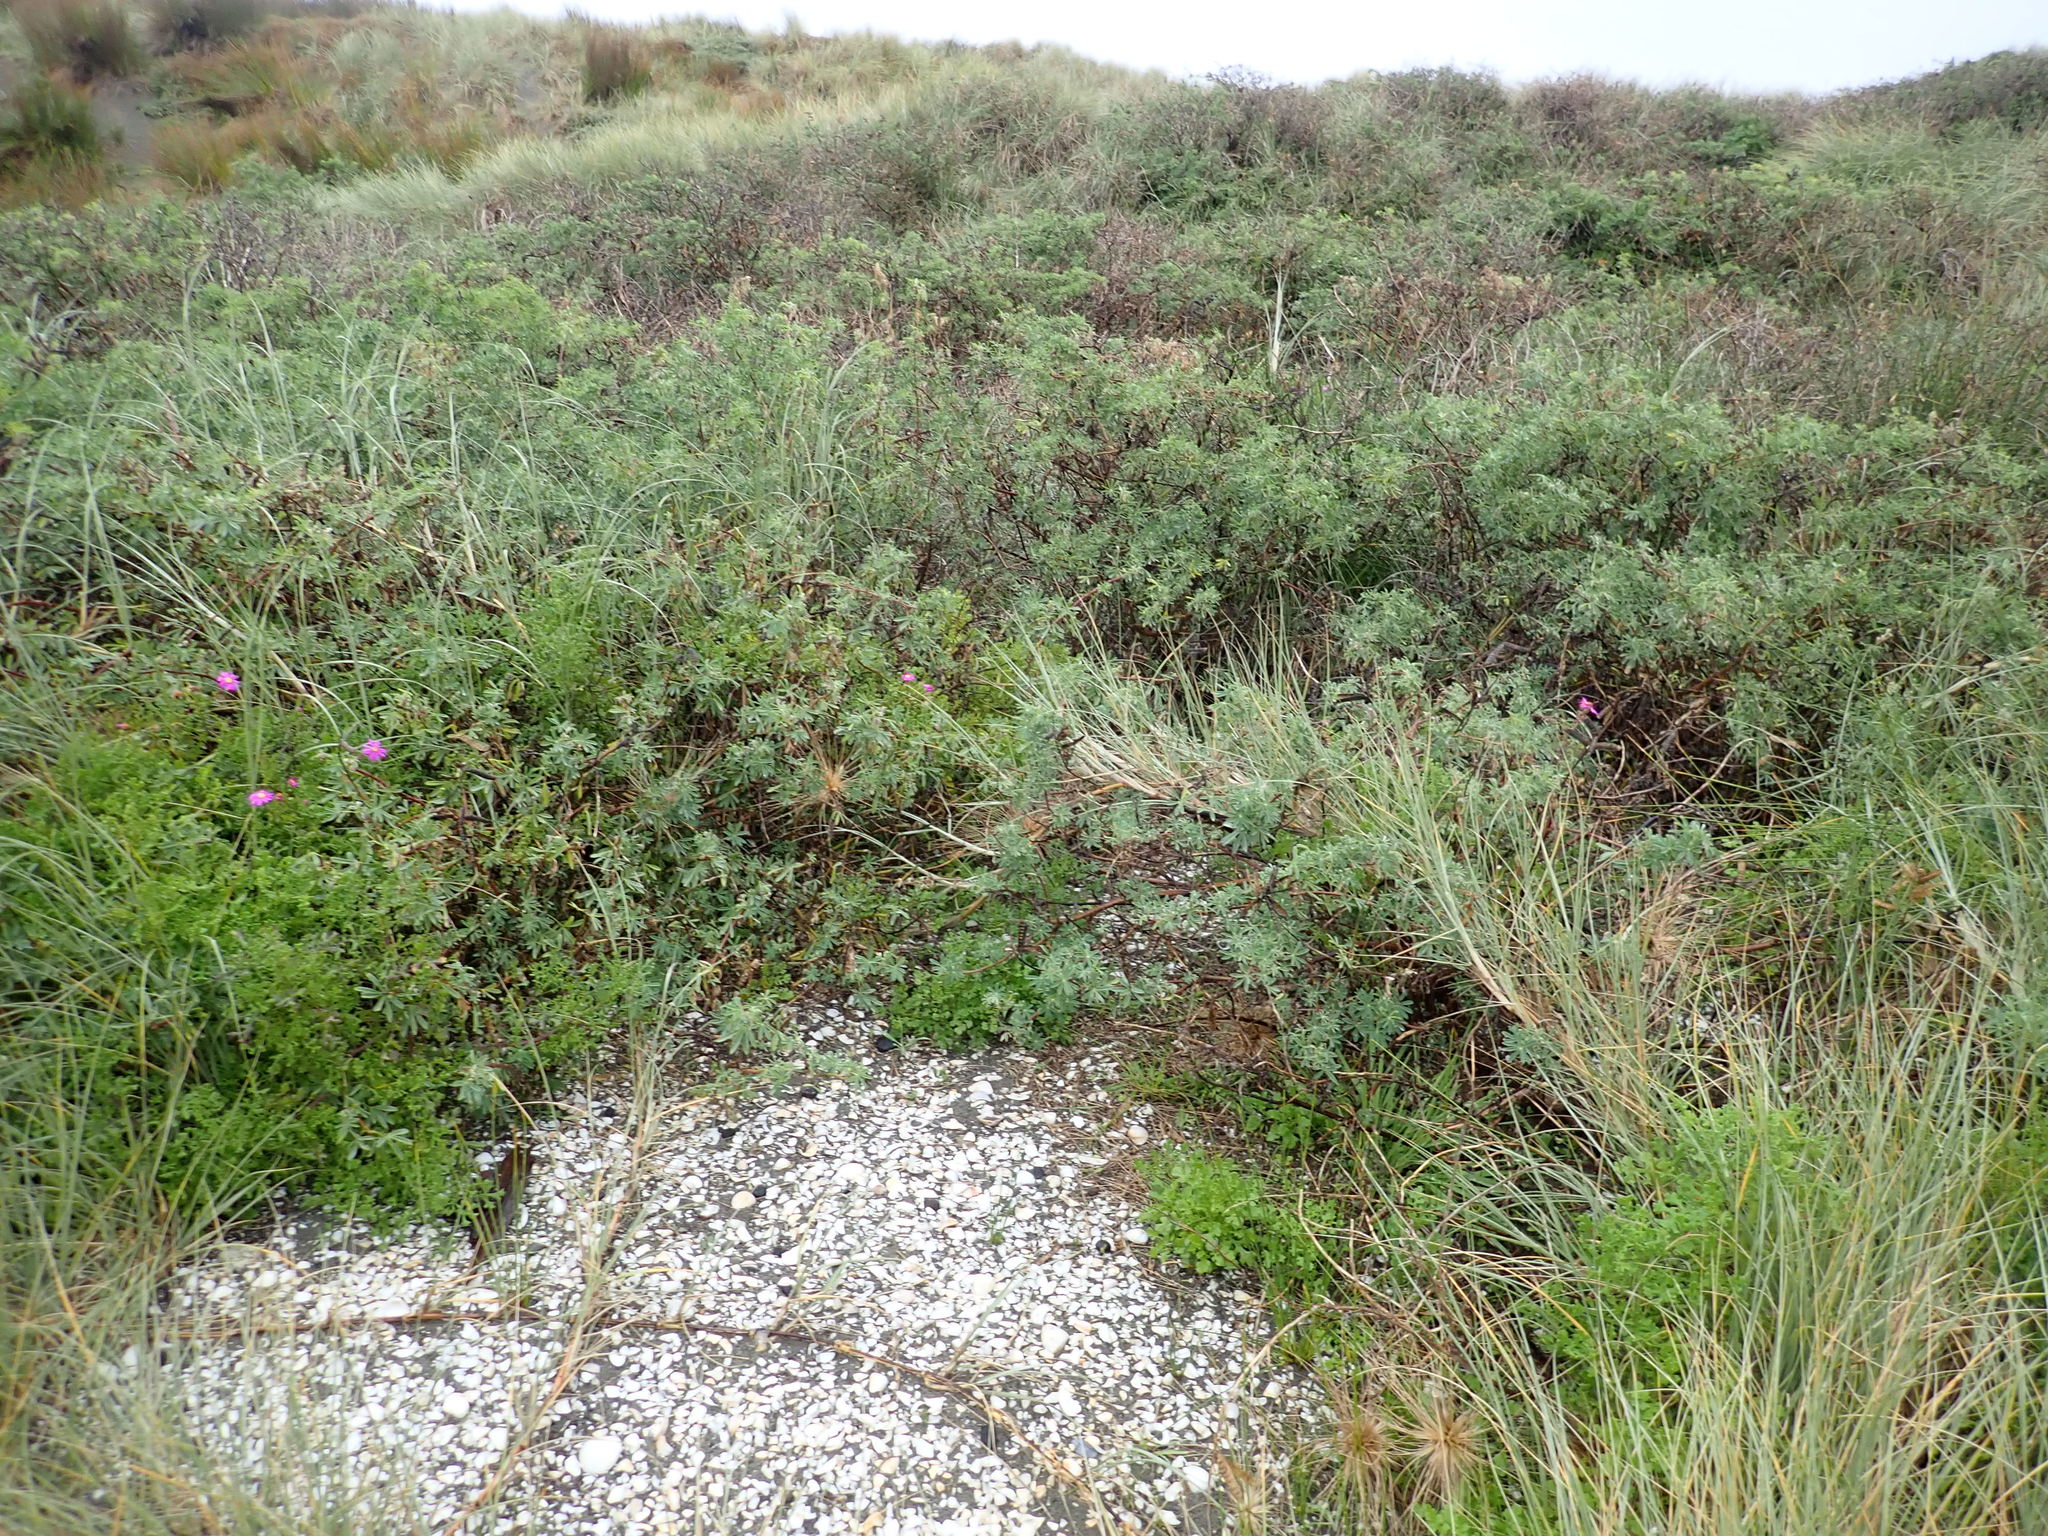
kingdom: Plantae
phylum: Tracheophyta
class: Magnoliopsida
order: Fabales
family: Fabaceae
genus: Lupinus
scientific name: Lupinus arboreus
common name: Yellow bush lupine
